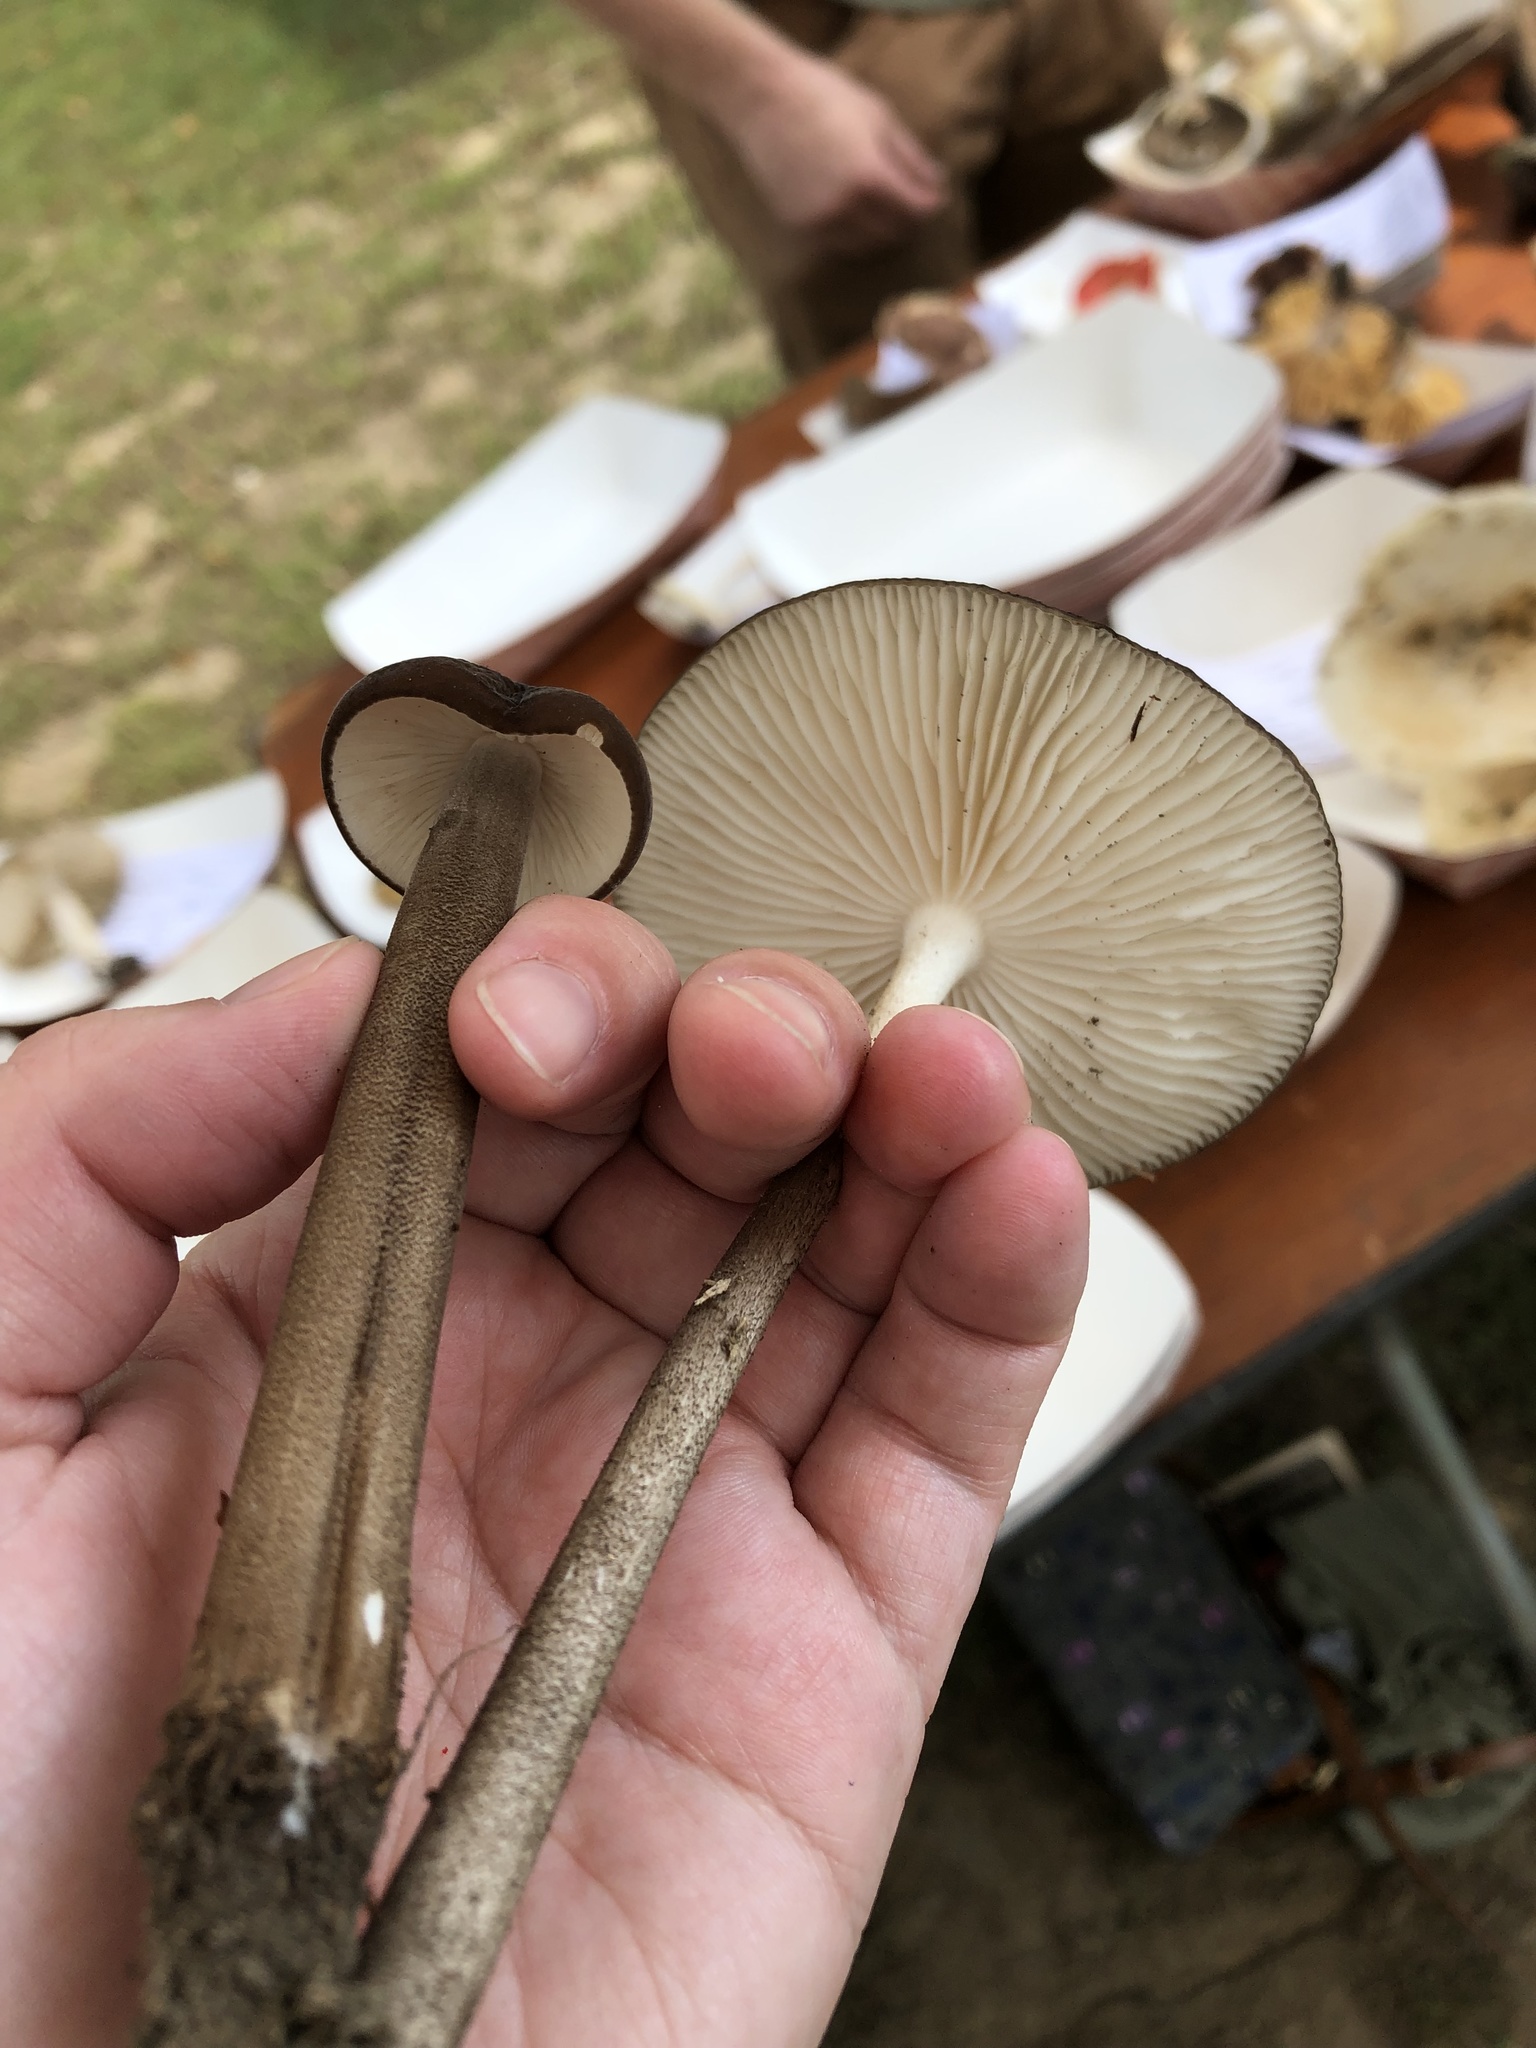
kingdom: Fungi
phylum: Basidiomycota
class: Agaricomycetes
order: Agaricales
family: Physalacriaceae
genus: Hymenopellis
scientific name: Hymenopellis furfuracea
